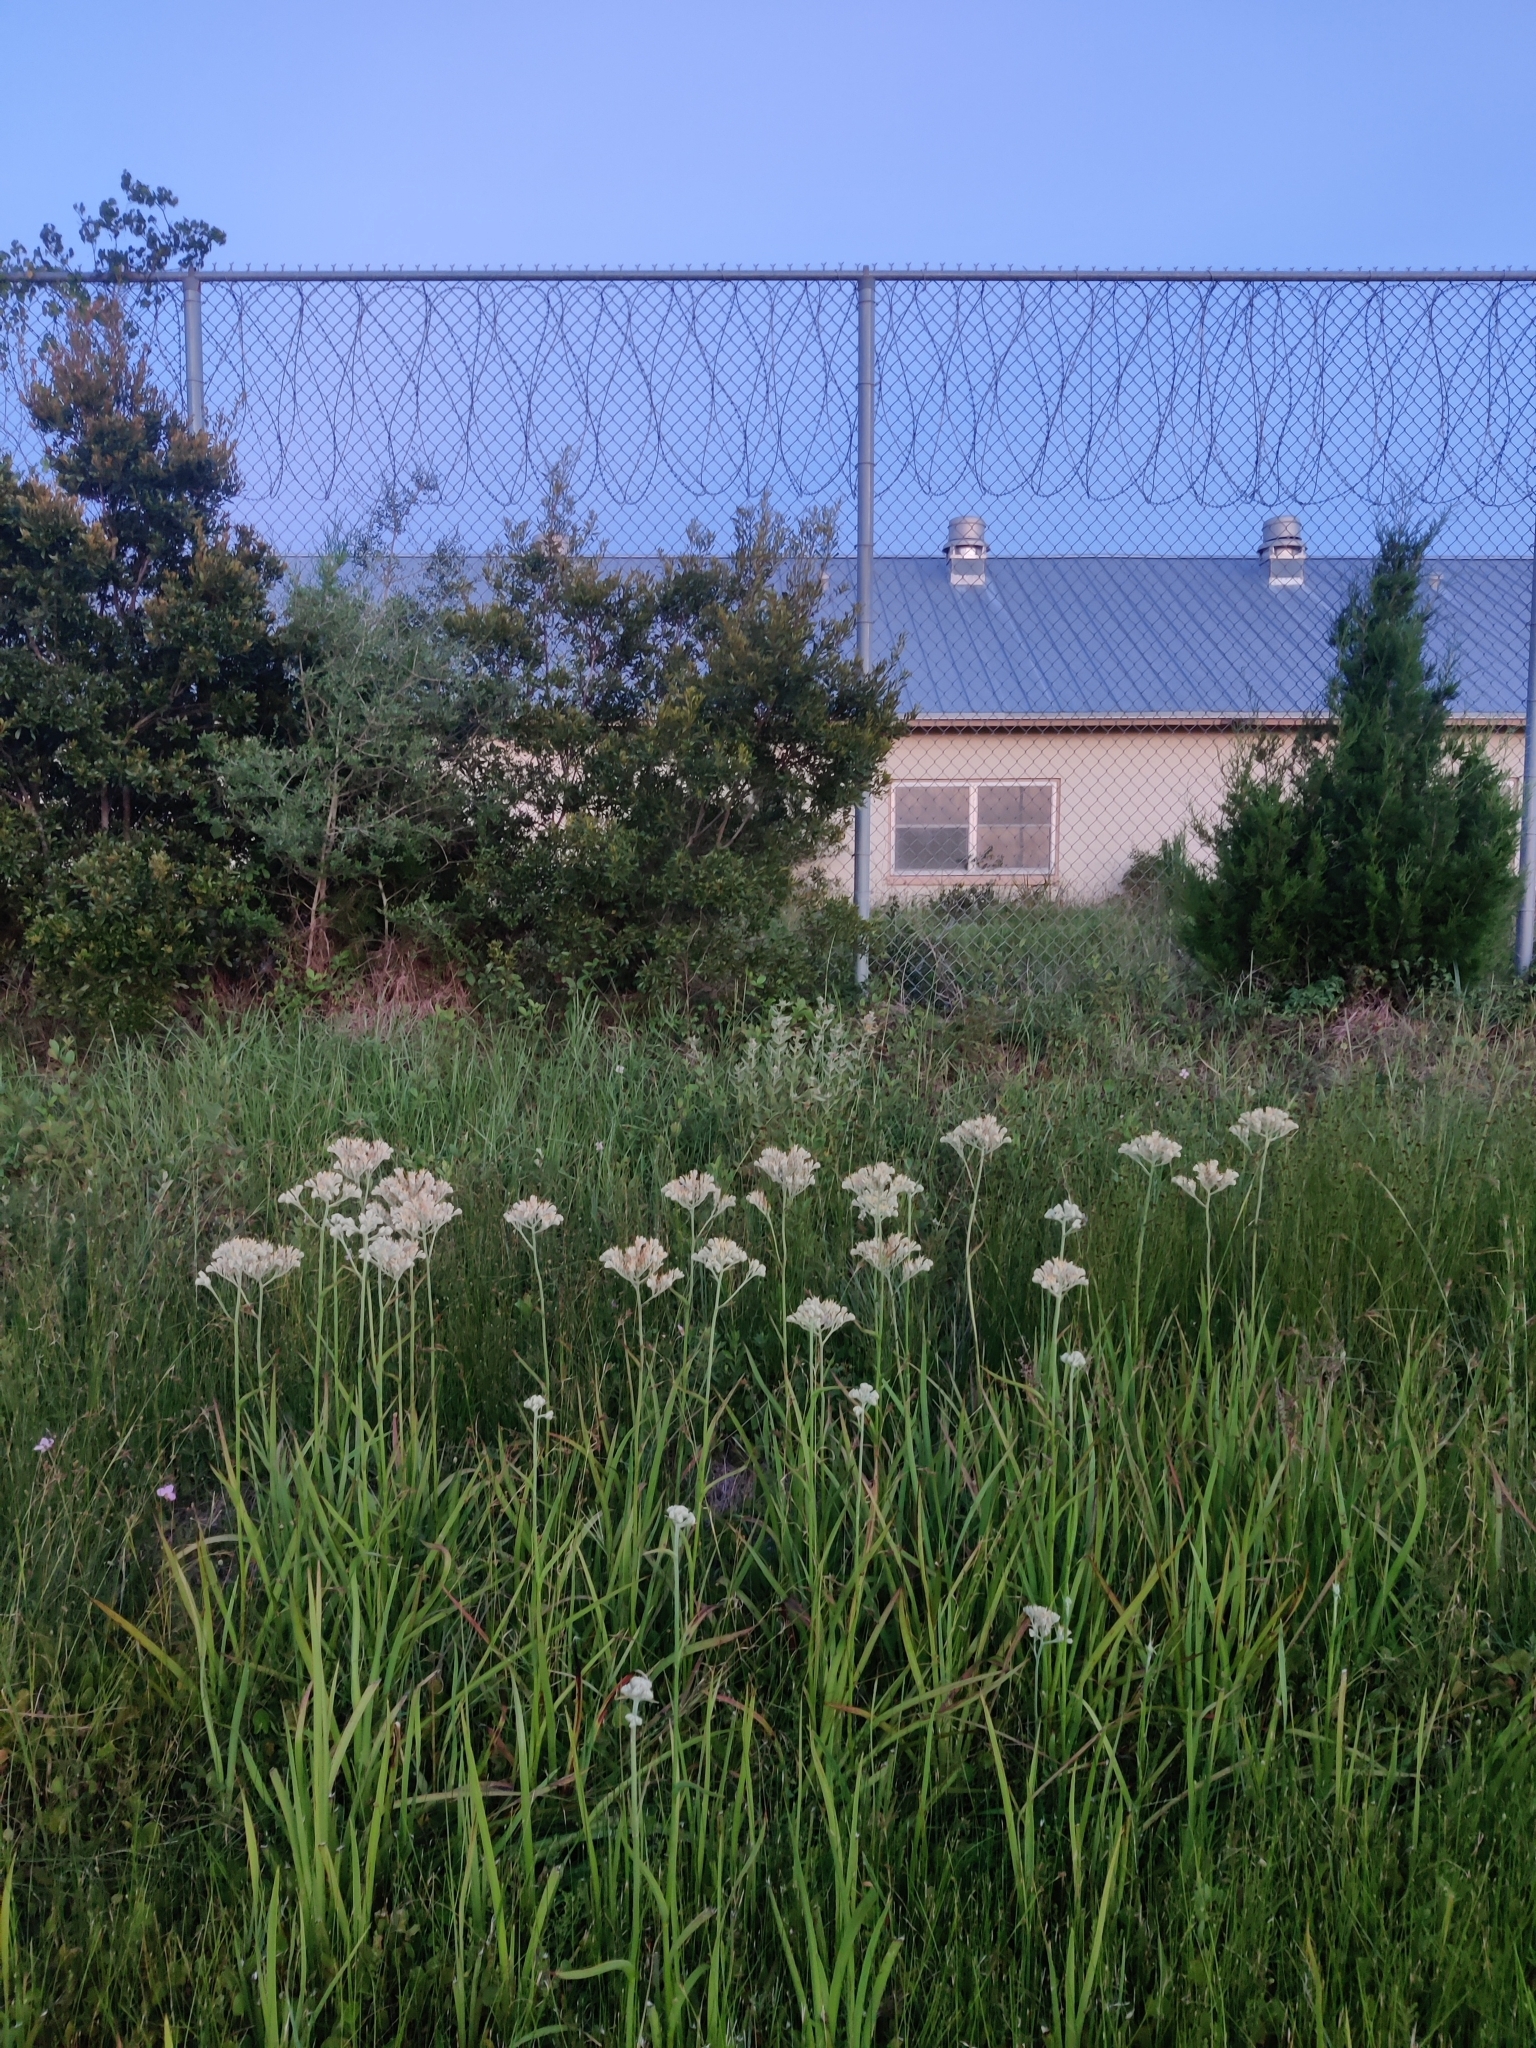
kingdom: Plantae
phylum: Tracheophyta
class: Liliopsida
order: Commelinales
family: Haemodoraceae
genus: Lachnanthes
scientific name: Lachnanthes caroliana
